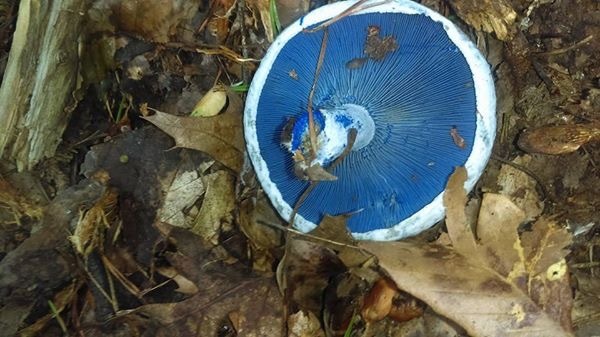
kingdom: Fungi
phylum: Basidiomycota
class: Agaricomycetes
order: Russulales
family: Russulaceae
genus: Lactarius
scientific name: Lactarius indigo
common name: Indigo milk cap
